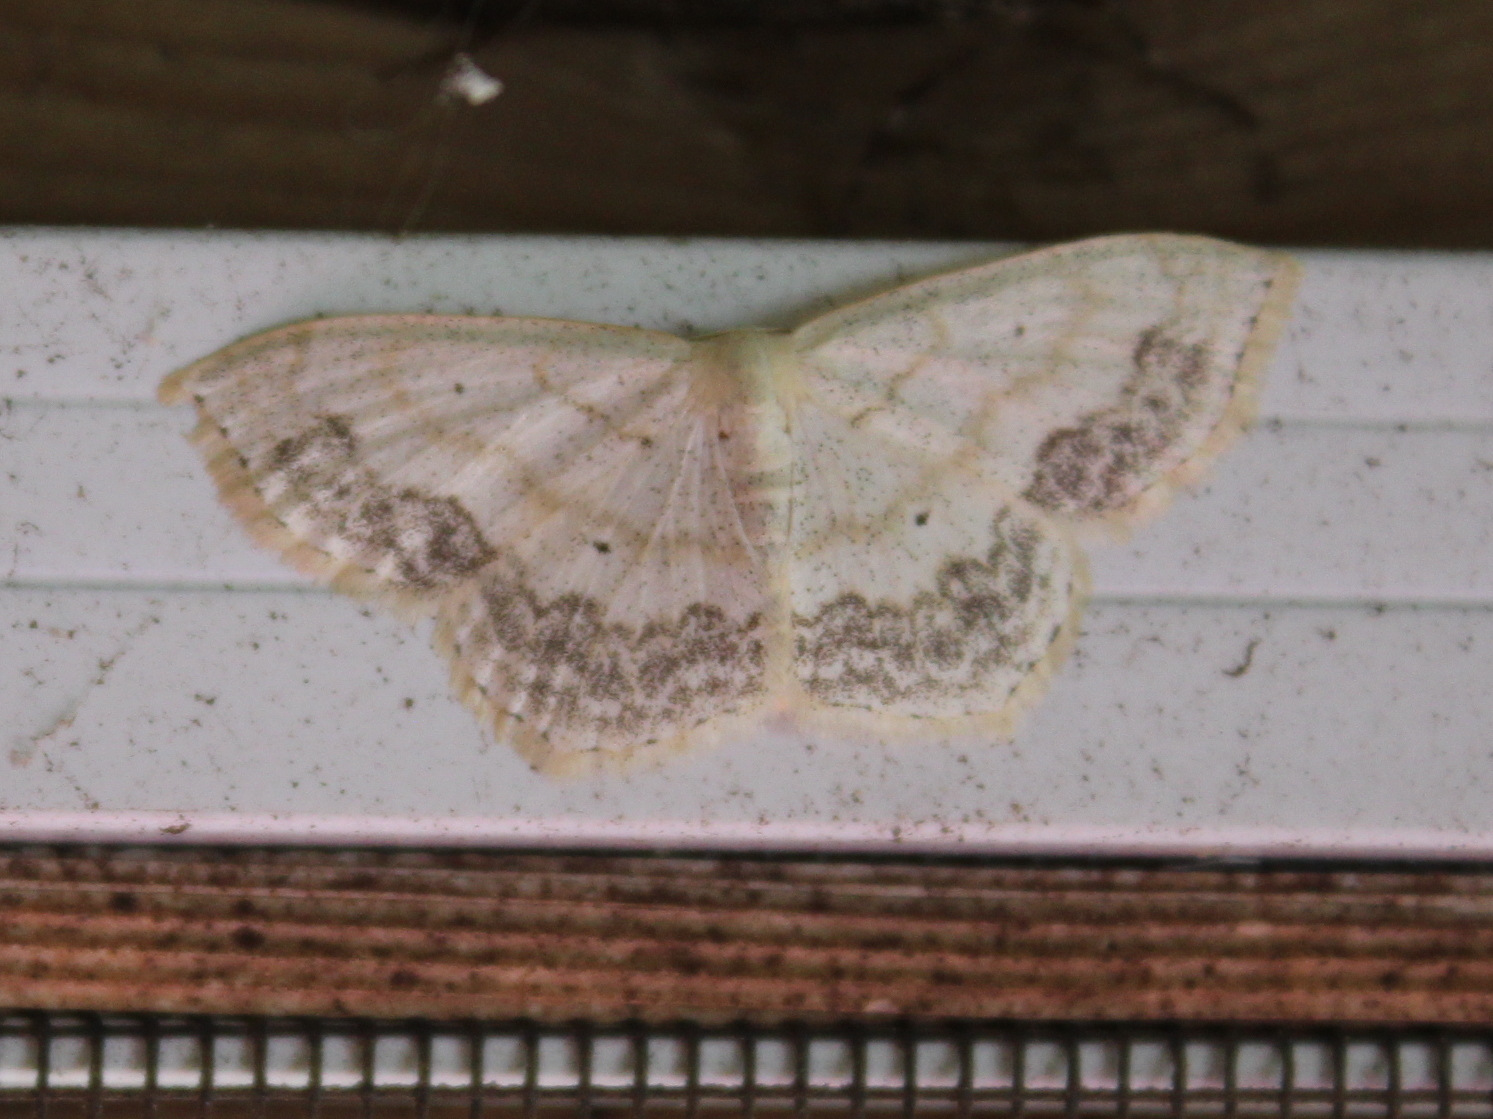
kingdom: Animalia
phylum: Arthropoda
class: Insecta
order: Lepidoptera
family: Geometridae
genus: Scopula
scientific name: Scopula limboundata
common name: Large lace border
